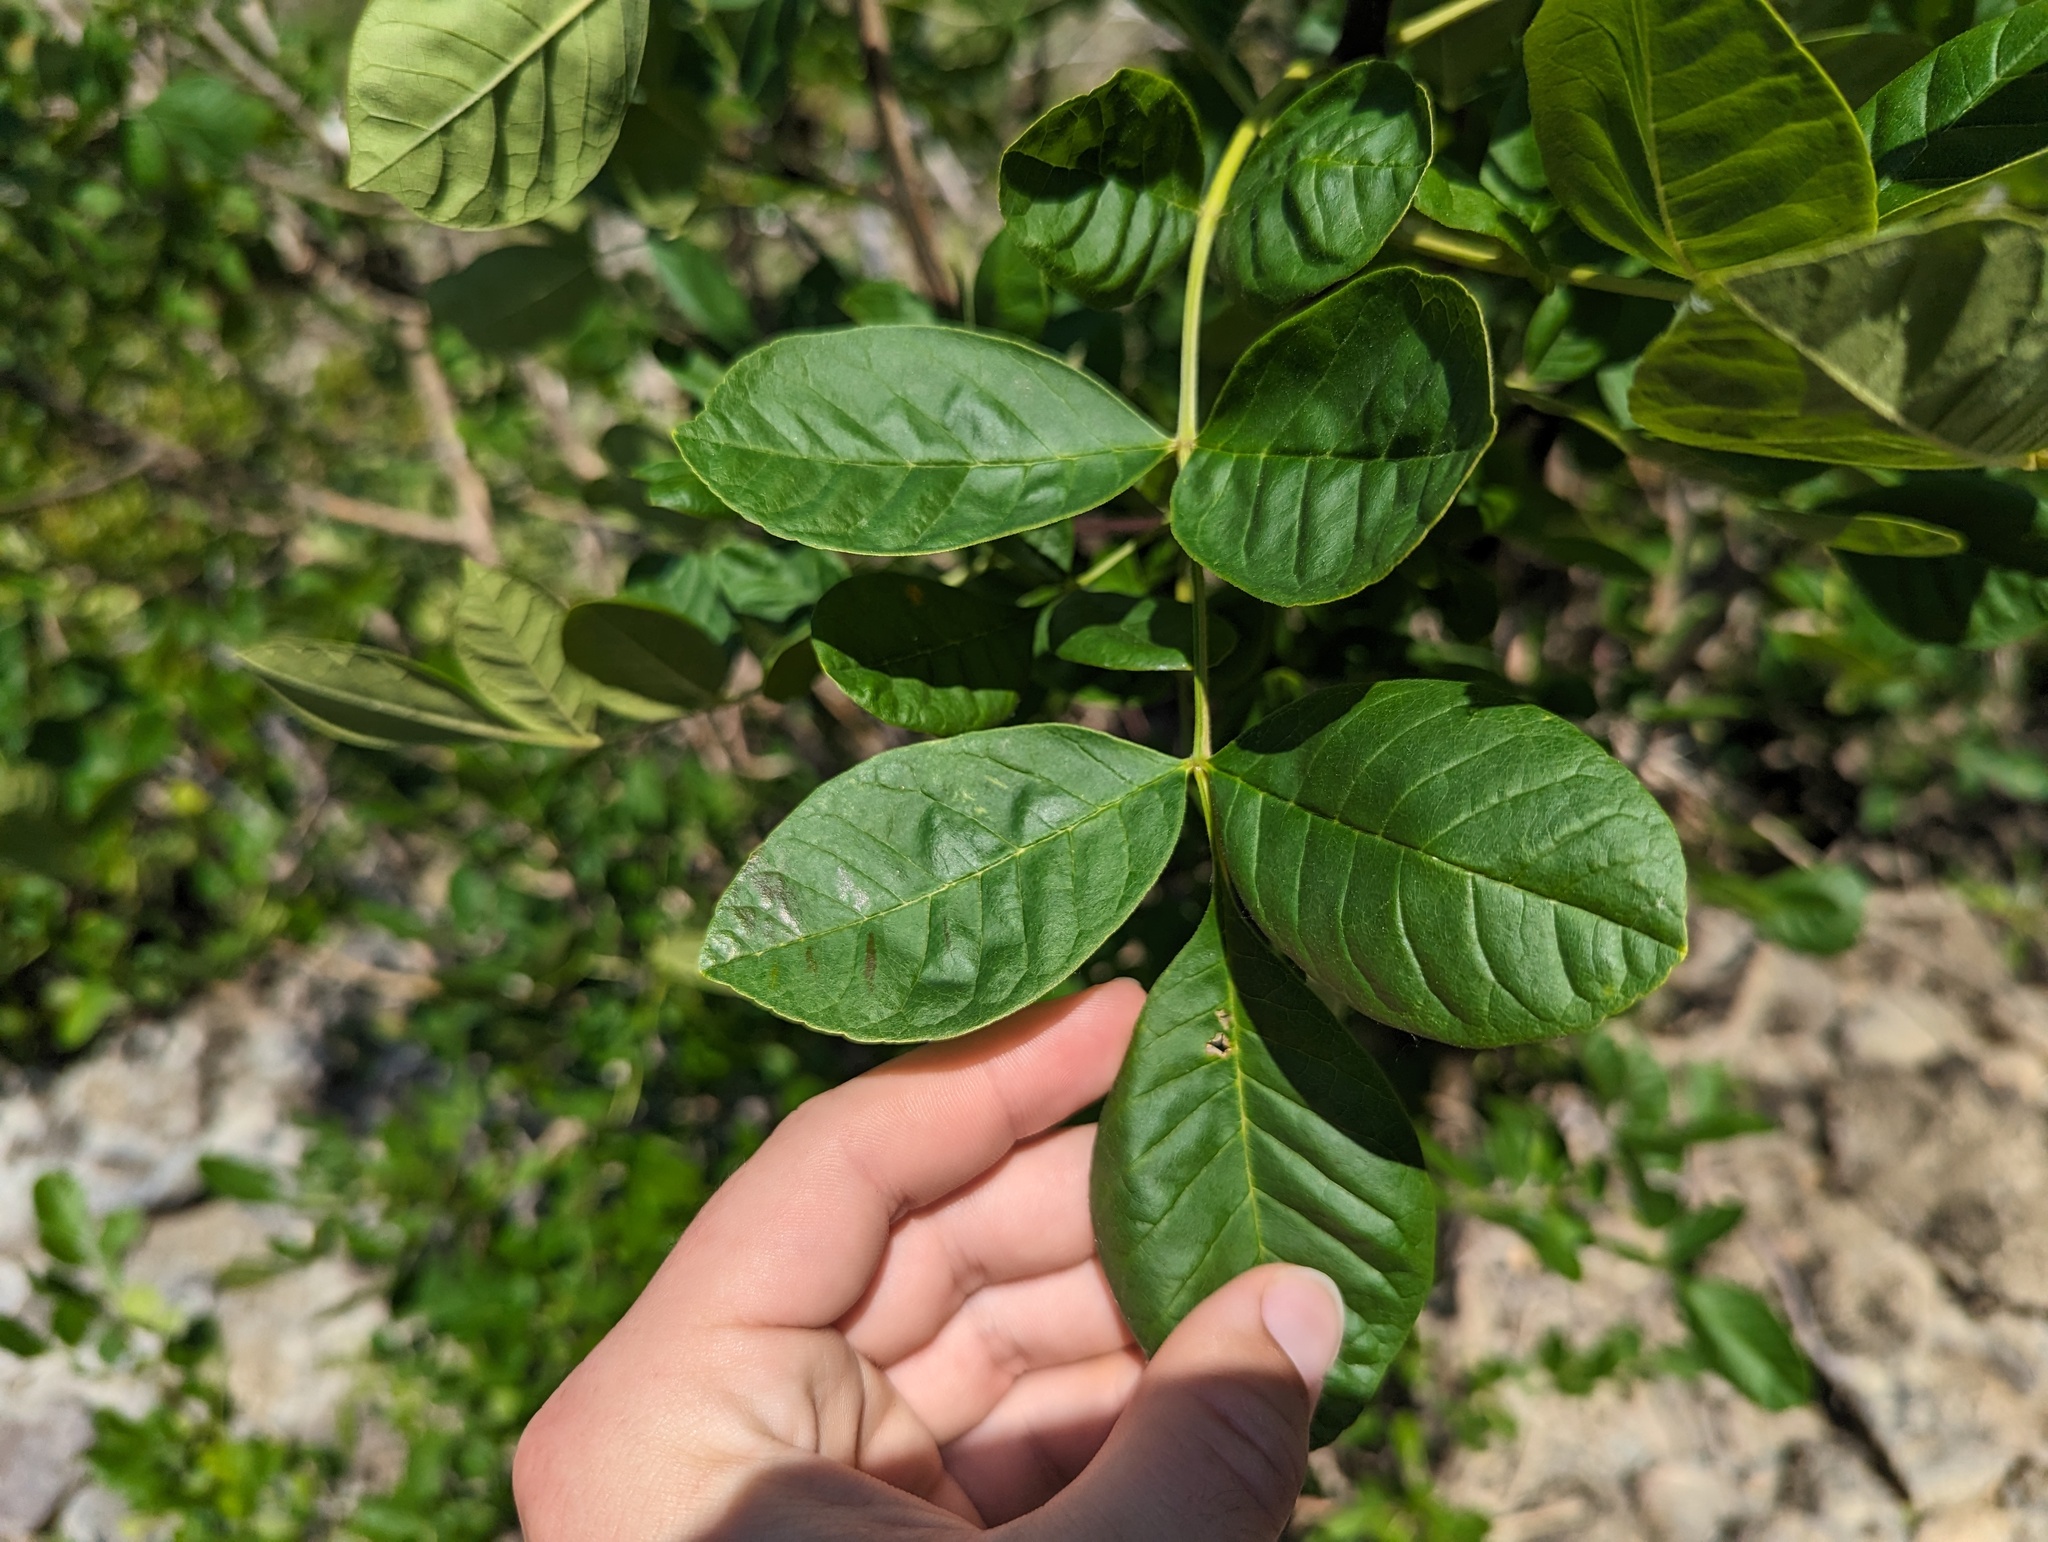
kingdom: Plantae
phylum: Tracheophyta
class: Magnoliopsida
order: Lamiales
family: Oleaceae
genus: Fraxinus
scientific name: Fraxinus latifolia
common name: Oregon ash
